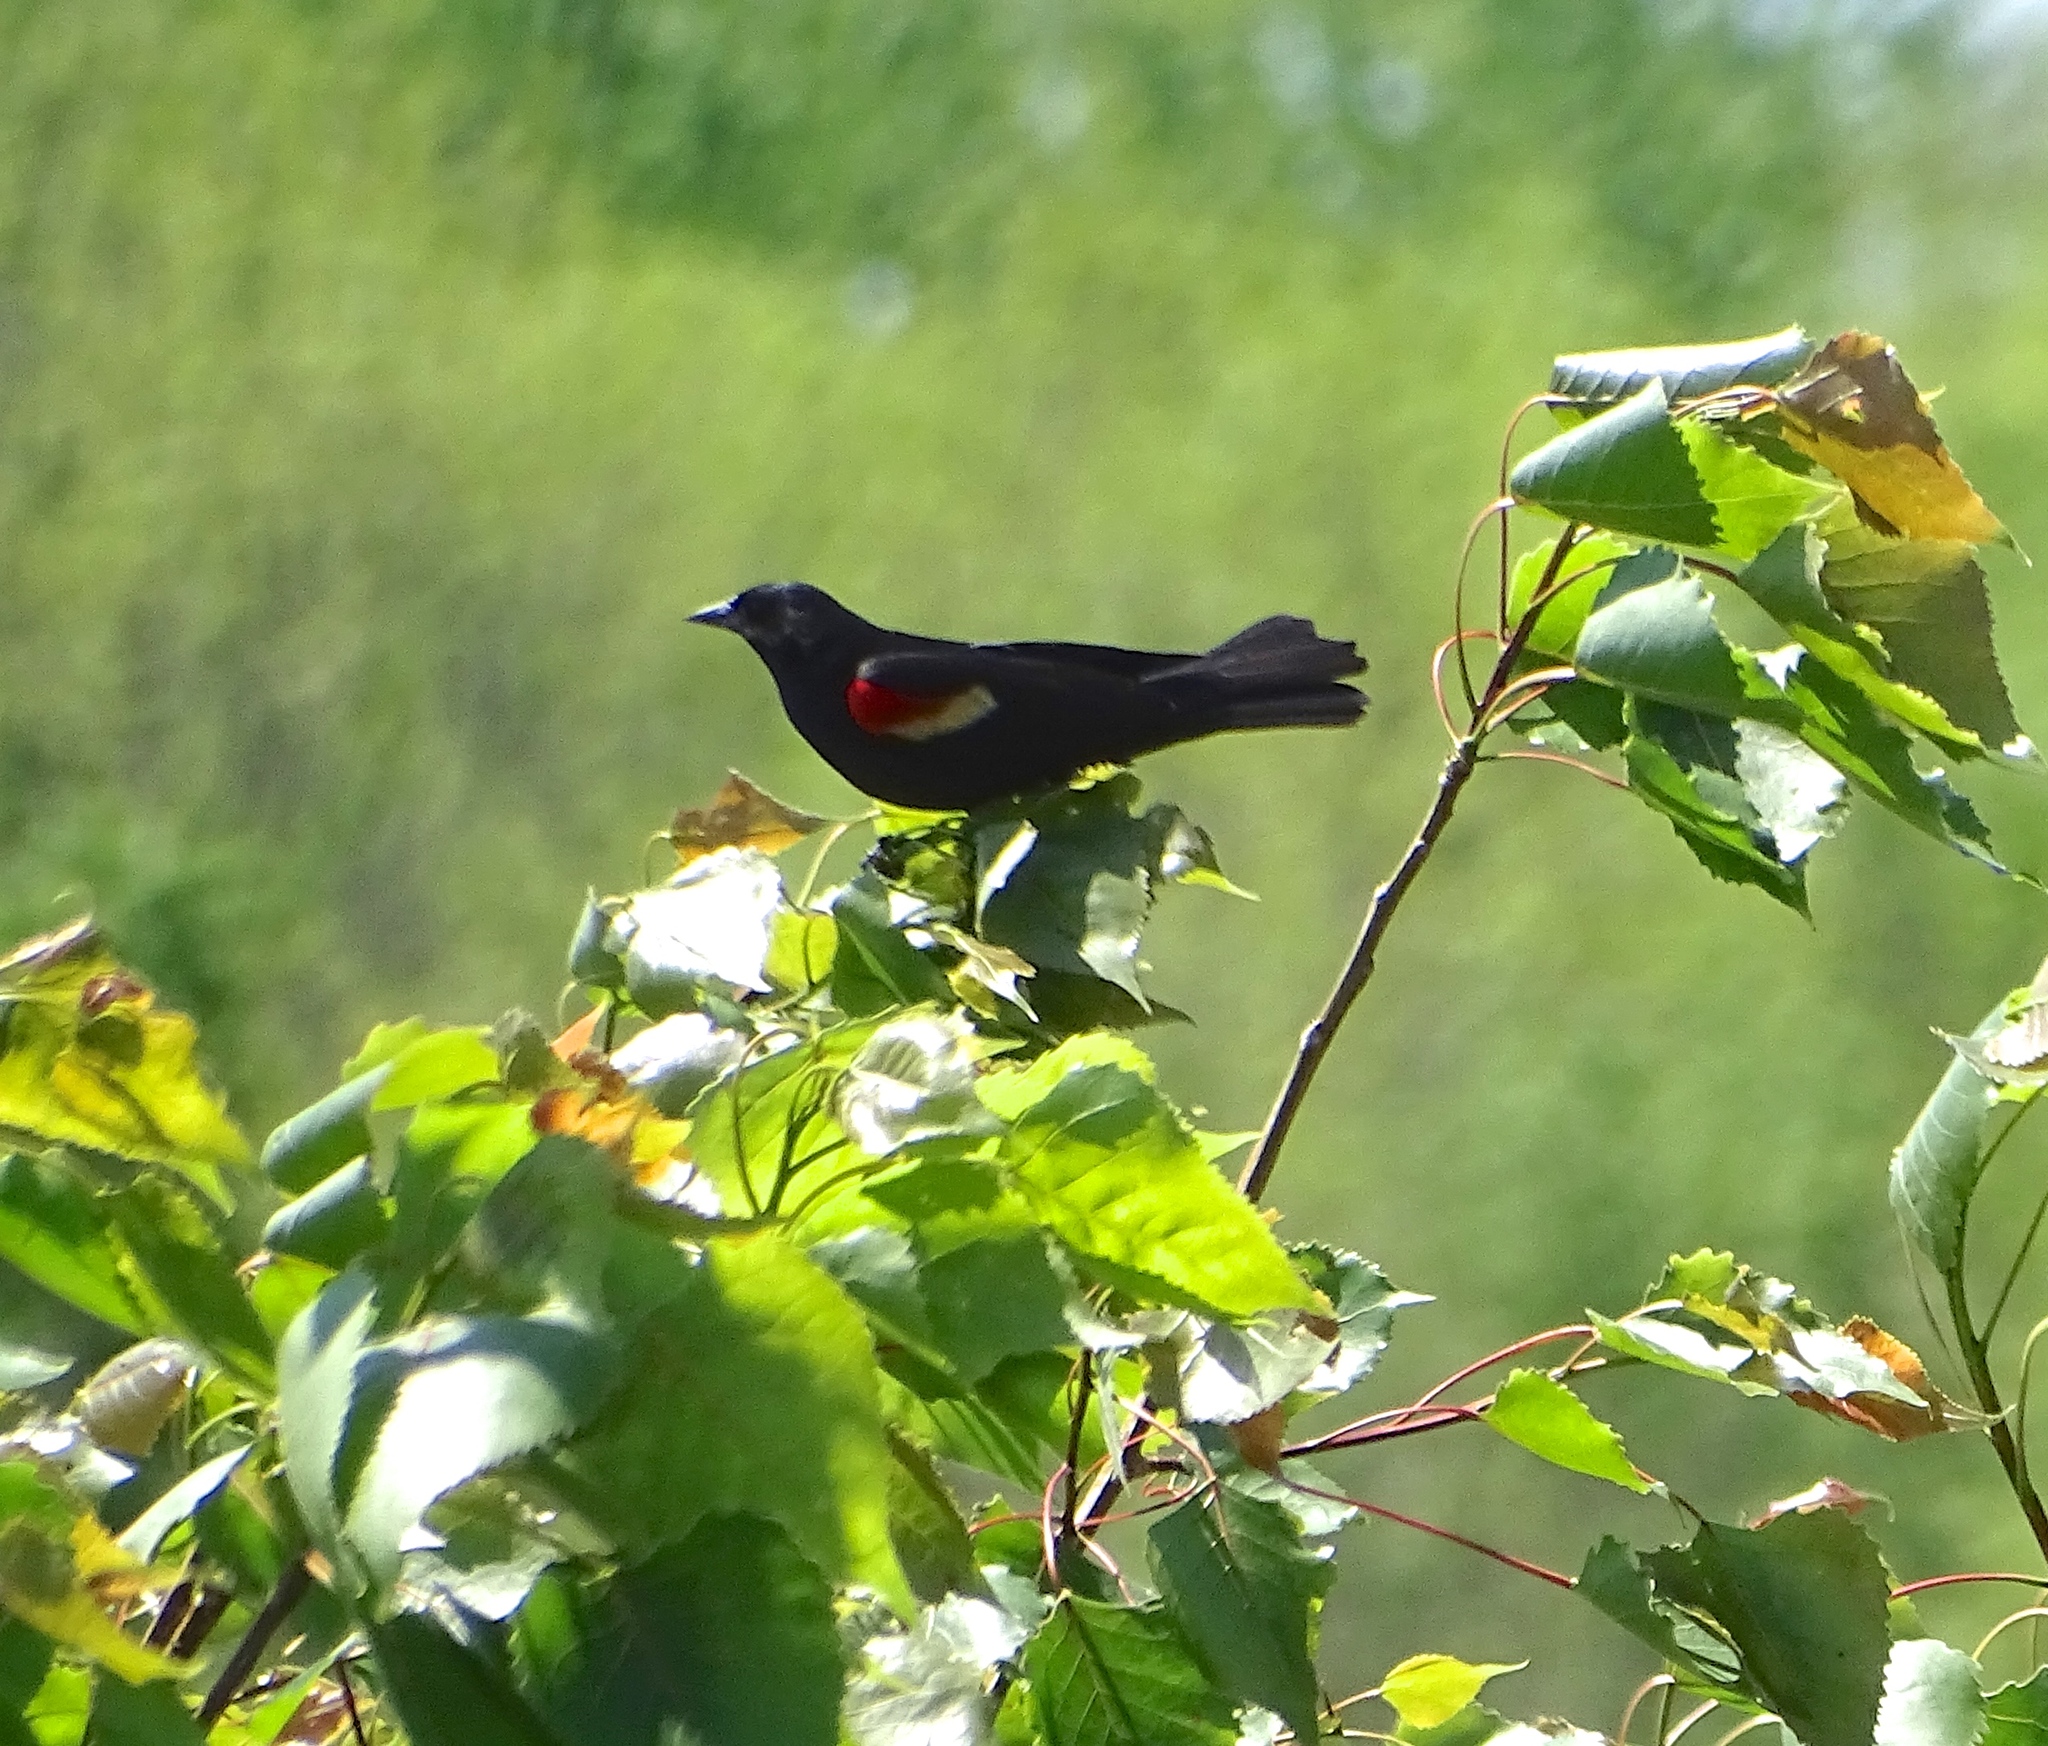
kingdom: Animalia
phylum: Chordata
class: Aves
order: Passeriformes
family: Icteridae
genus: Agelaius
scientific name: Agelaius phoeniceus
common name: Red-winged blackbird
